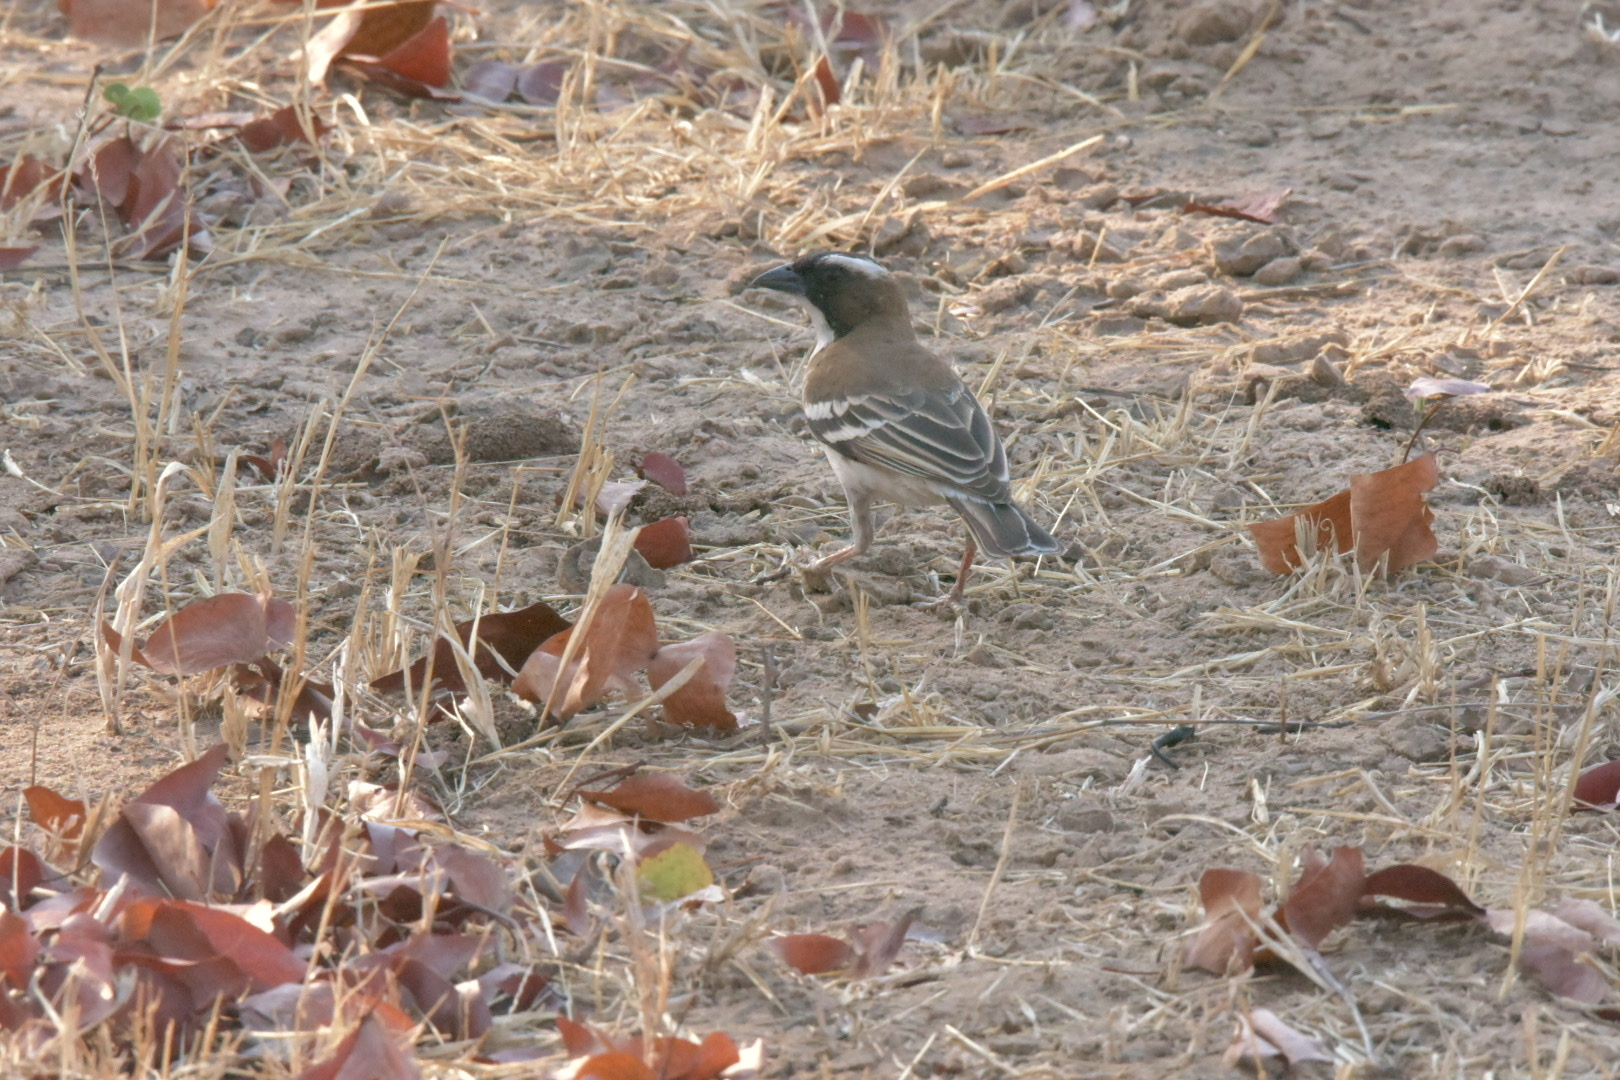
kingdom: Animalia
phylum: Chordata
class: Aves
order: Passeriformes
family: Passeridae
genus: Plocepasser
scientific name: Plocepasser mahali
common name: White-browed sparrow-weaver
